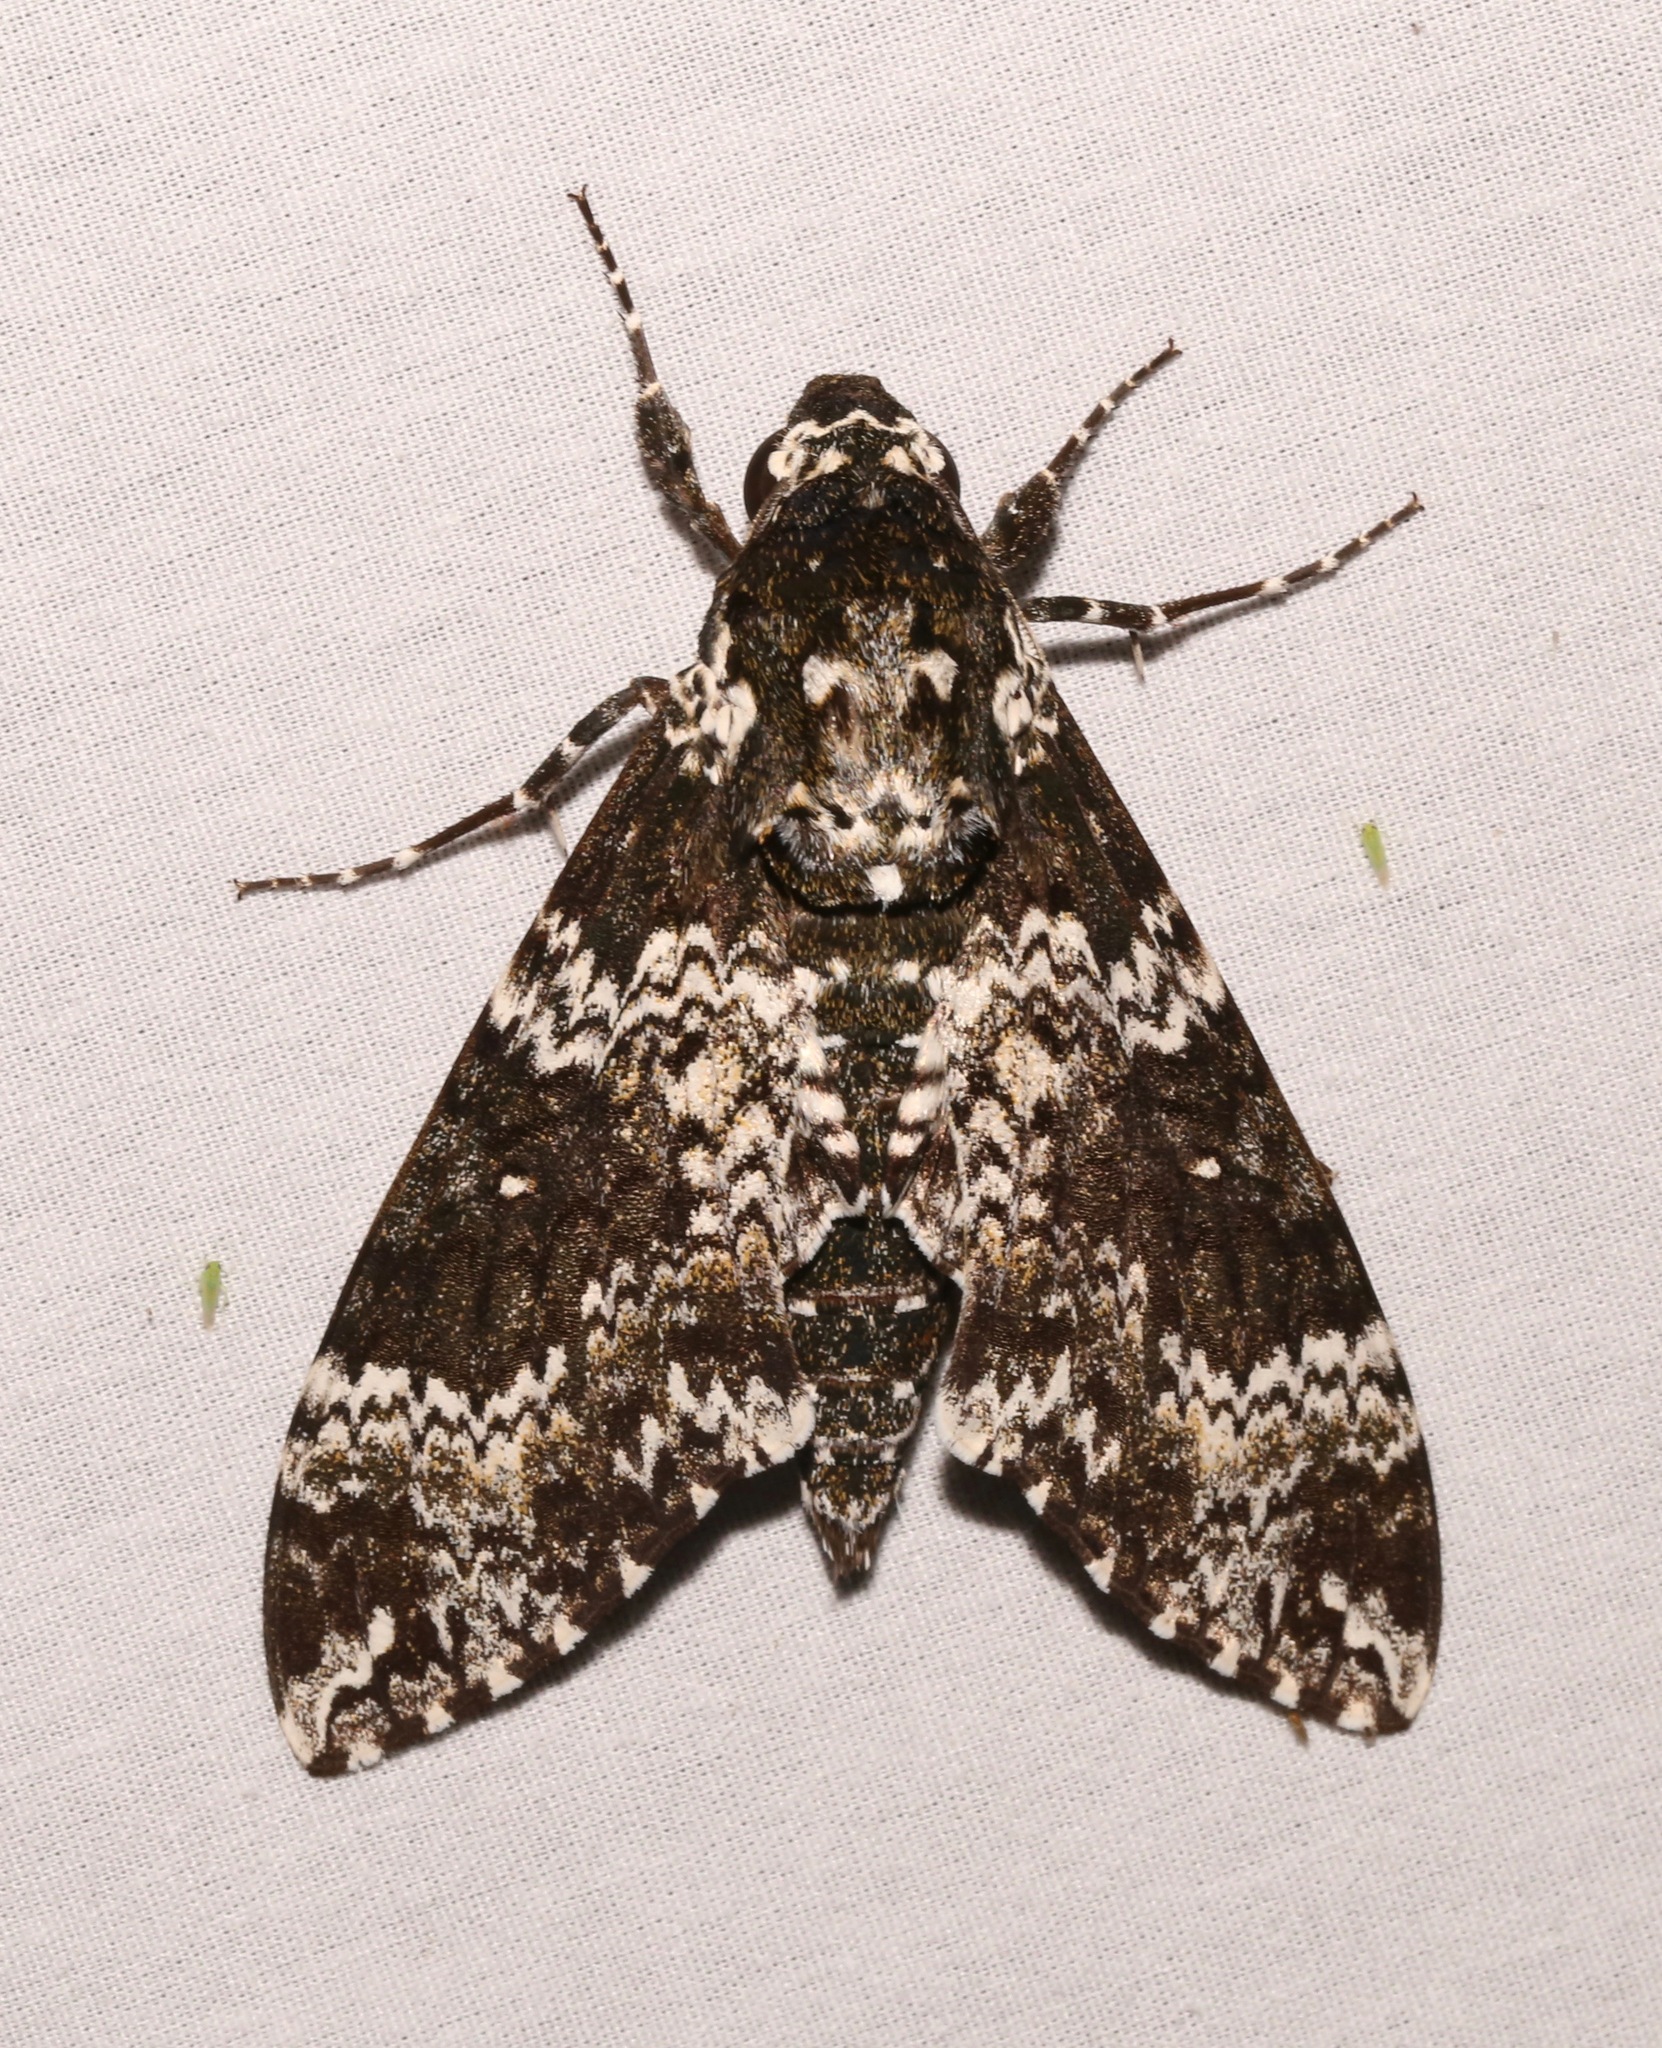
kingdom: Animalia
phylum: Arthropoda
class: Insecta
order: Lepidoptera
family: Sphingidae
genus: Manduca
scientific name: Manduca rustica
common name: Rustic sphinx
